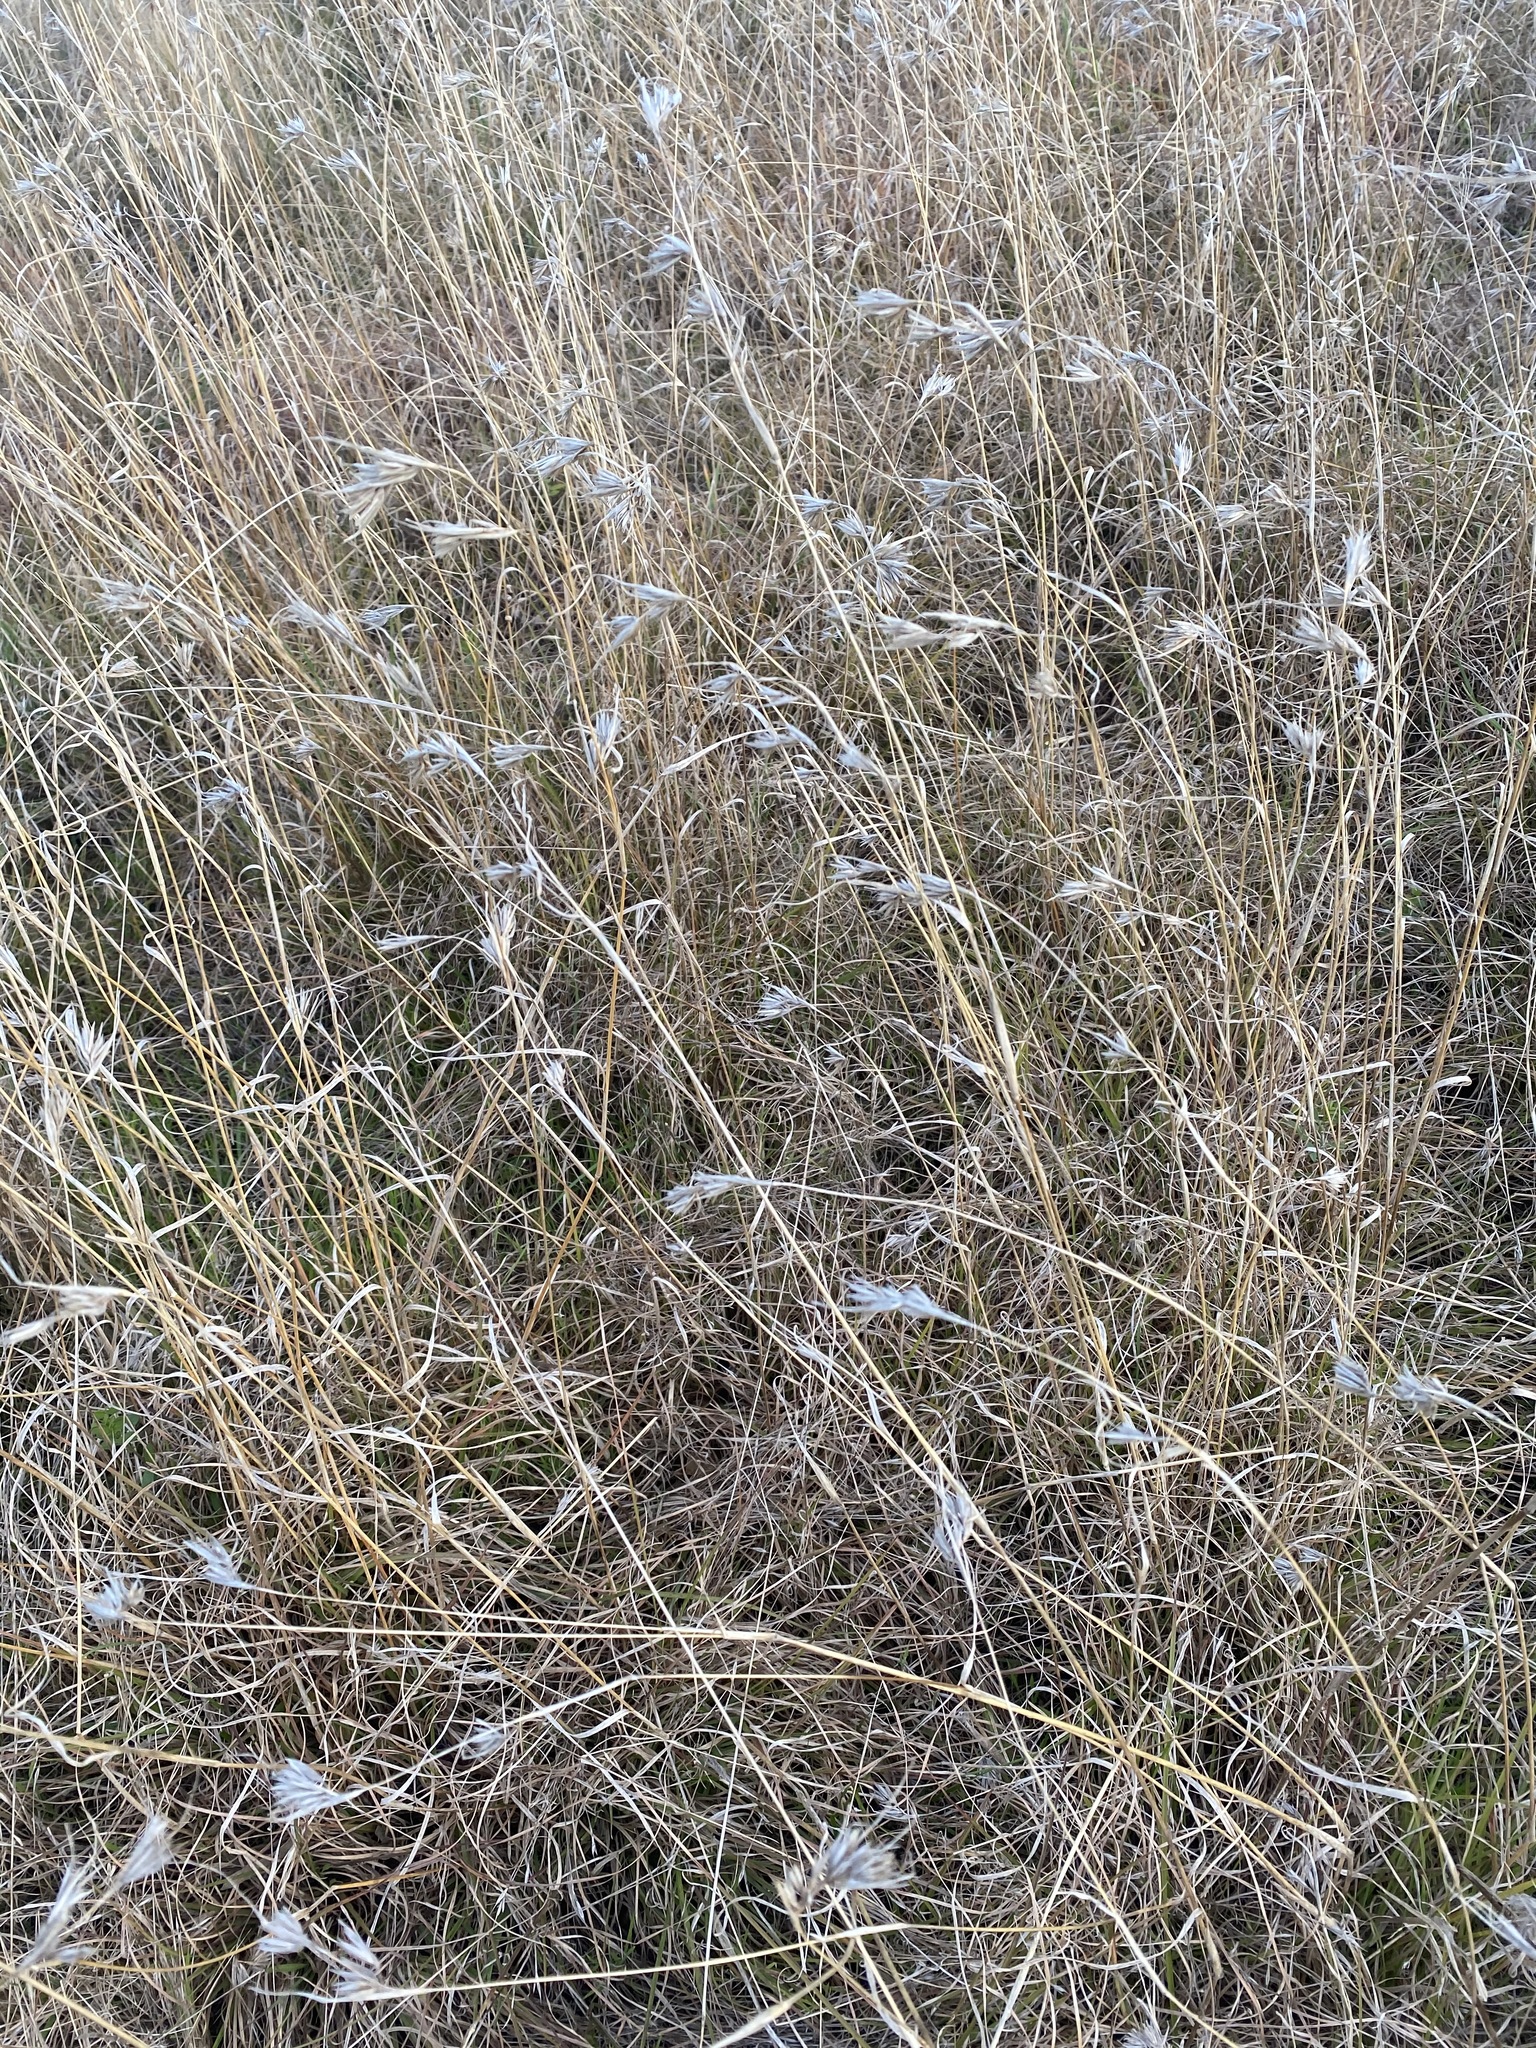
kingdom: Plantae
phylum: Tracheophyta
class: Liliopsida
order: Poales
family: Poaceae
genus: Themeda
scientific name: Themeda triandra
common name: Kangaroo grass
